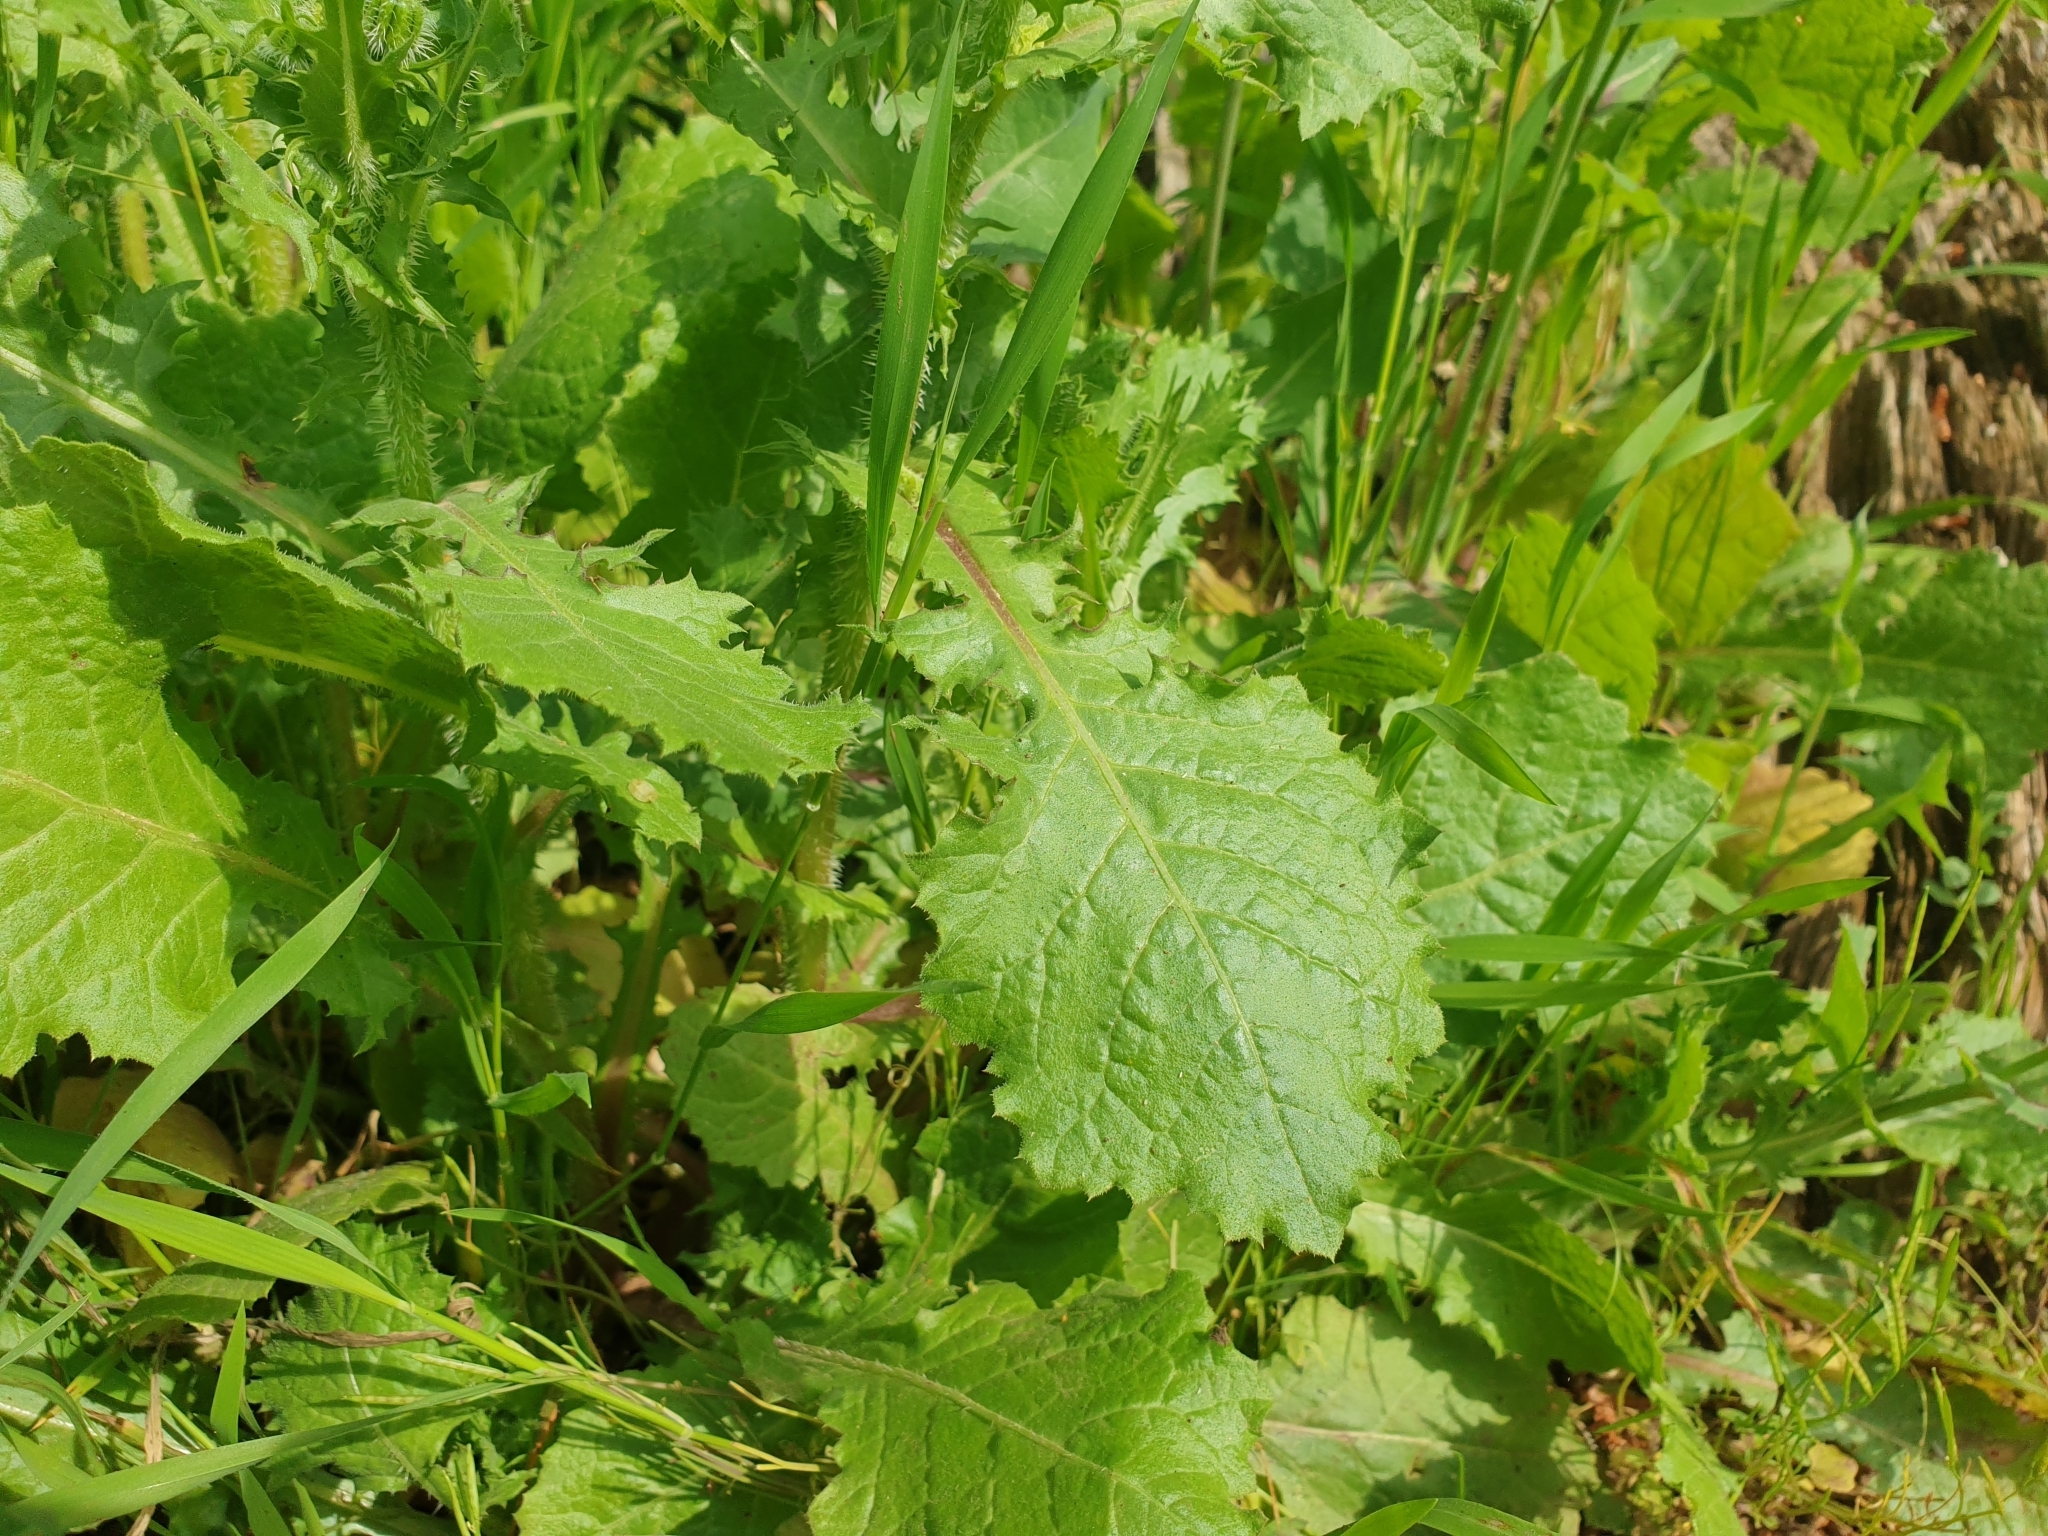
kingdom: Plantae
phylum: Tracheophyta
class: Magnoliopsida
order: Asterales
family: Asteraceae
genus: Urospermum
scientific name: Urospermum picroides
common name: False hawkbit
